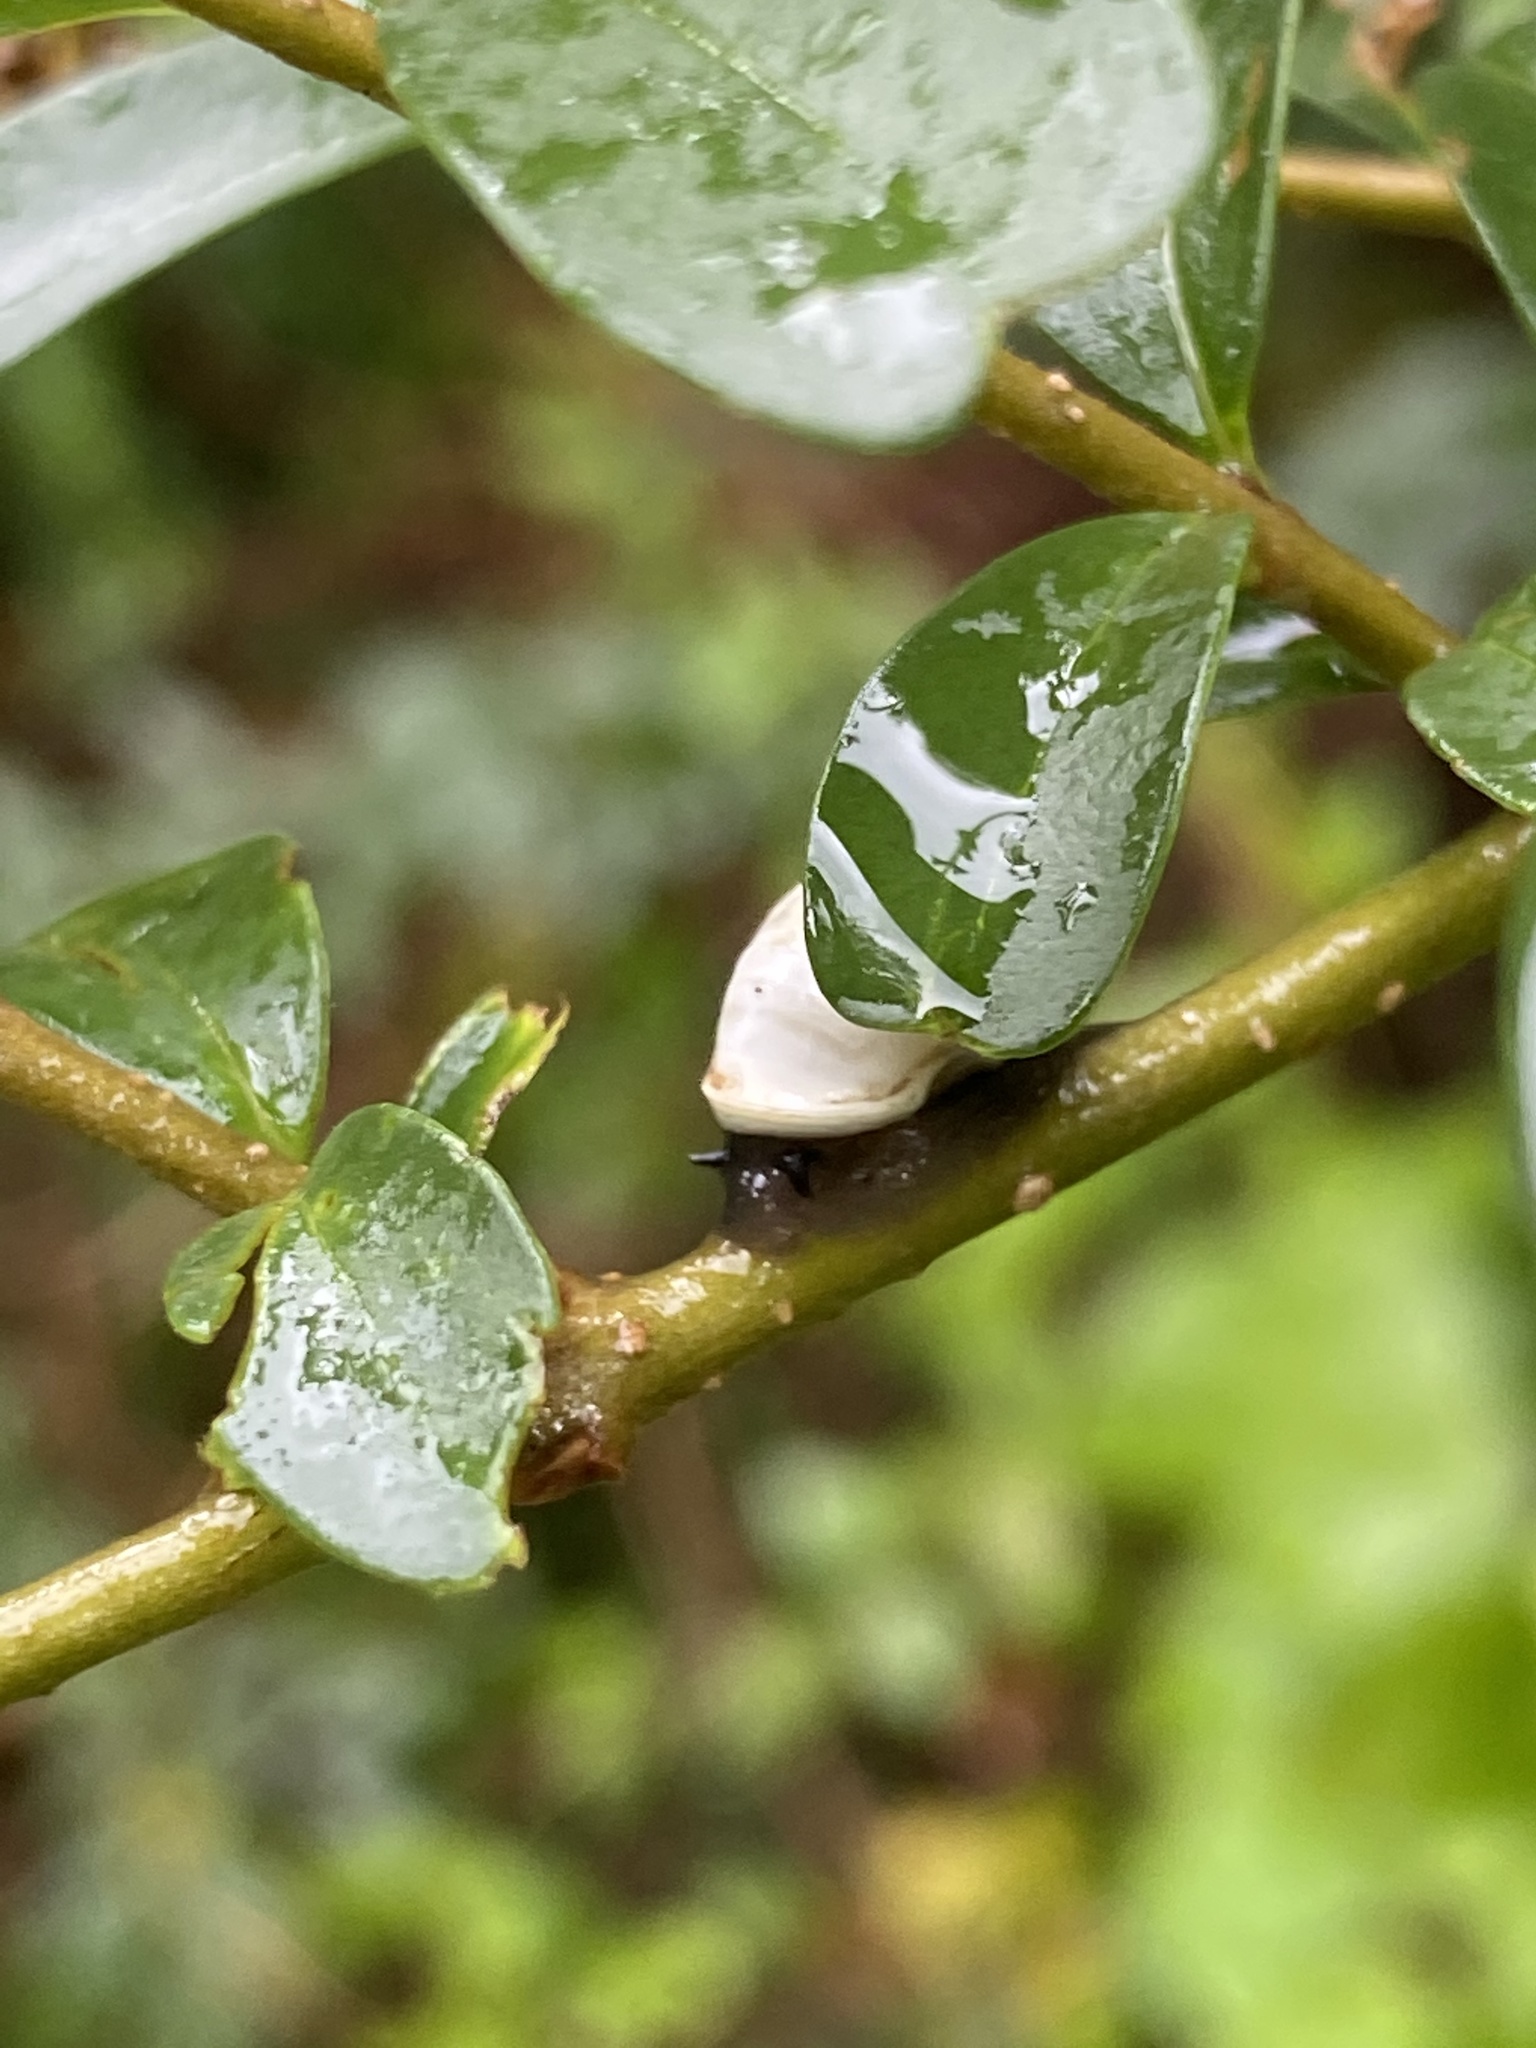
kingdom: Animalia
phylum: Mollusca
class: Gastropoda
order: Cycloneritida
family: Helicinidae
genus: Helicina
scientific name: Helicina orbiculata
